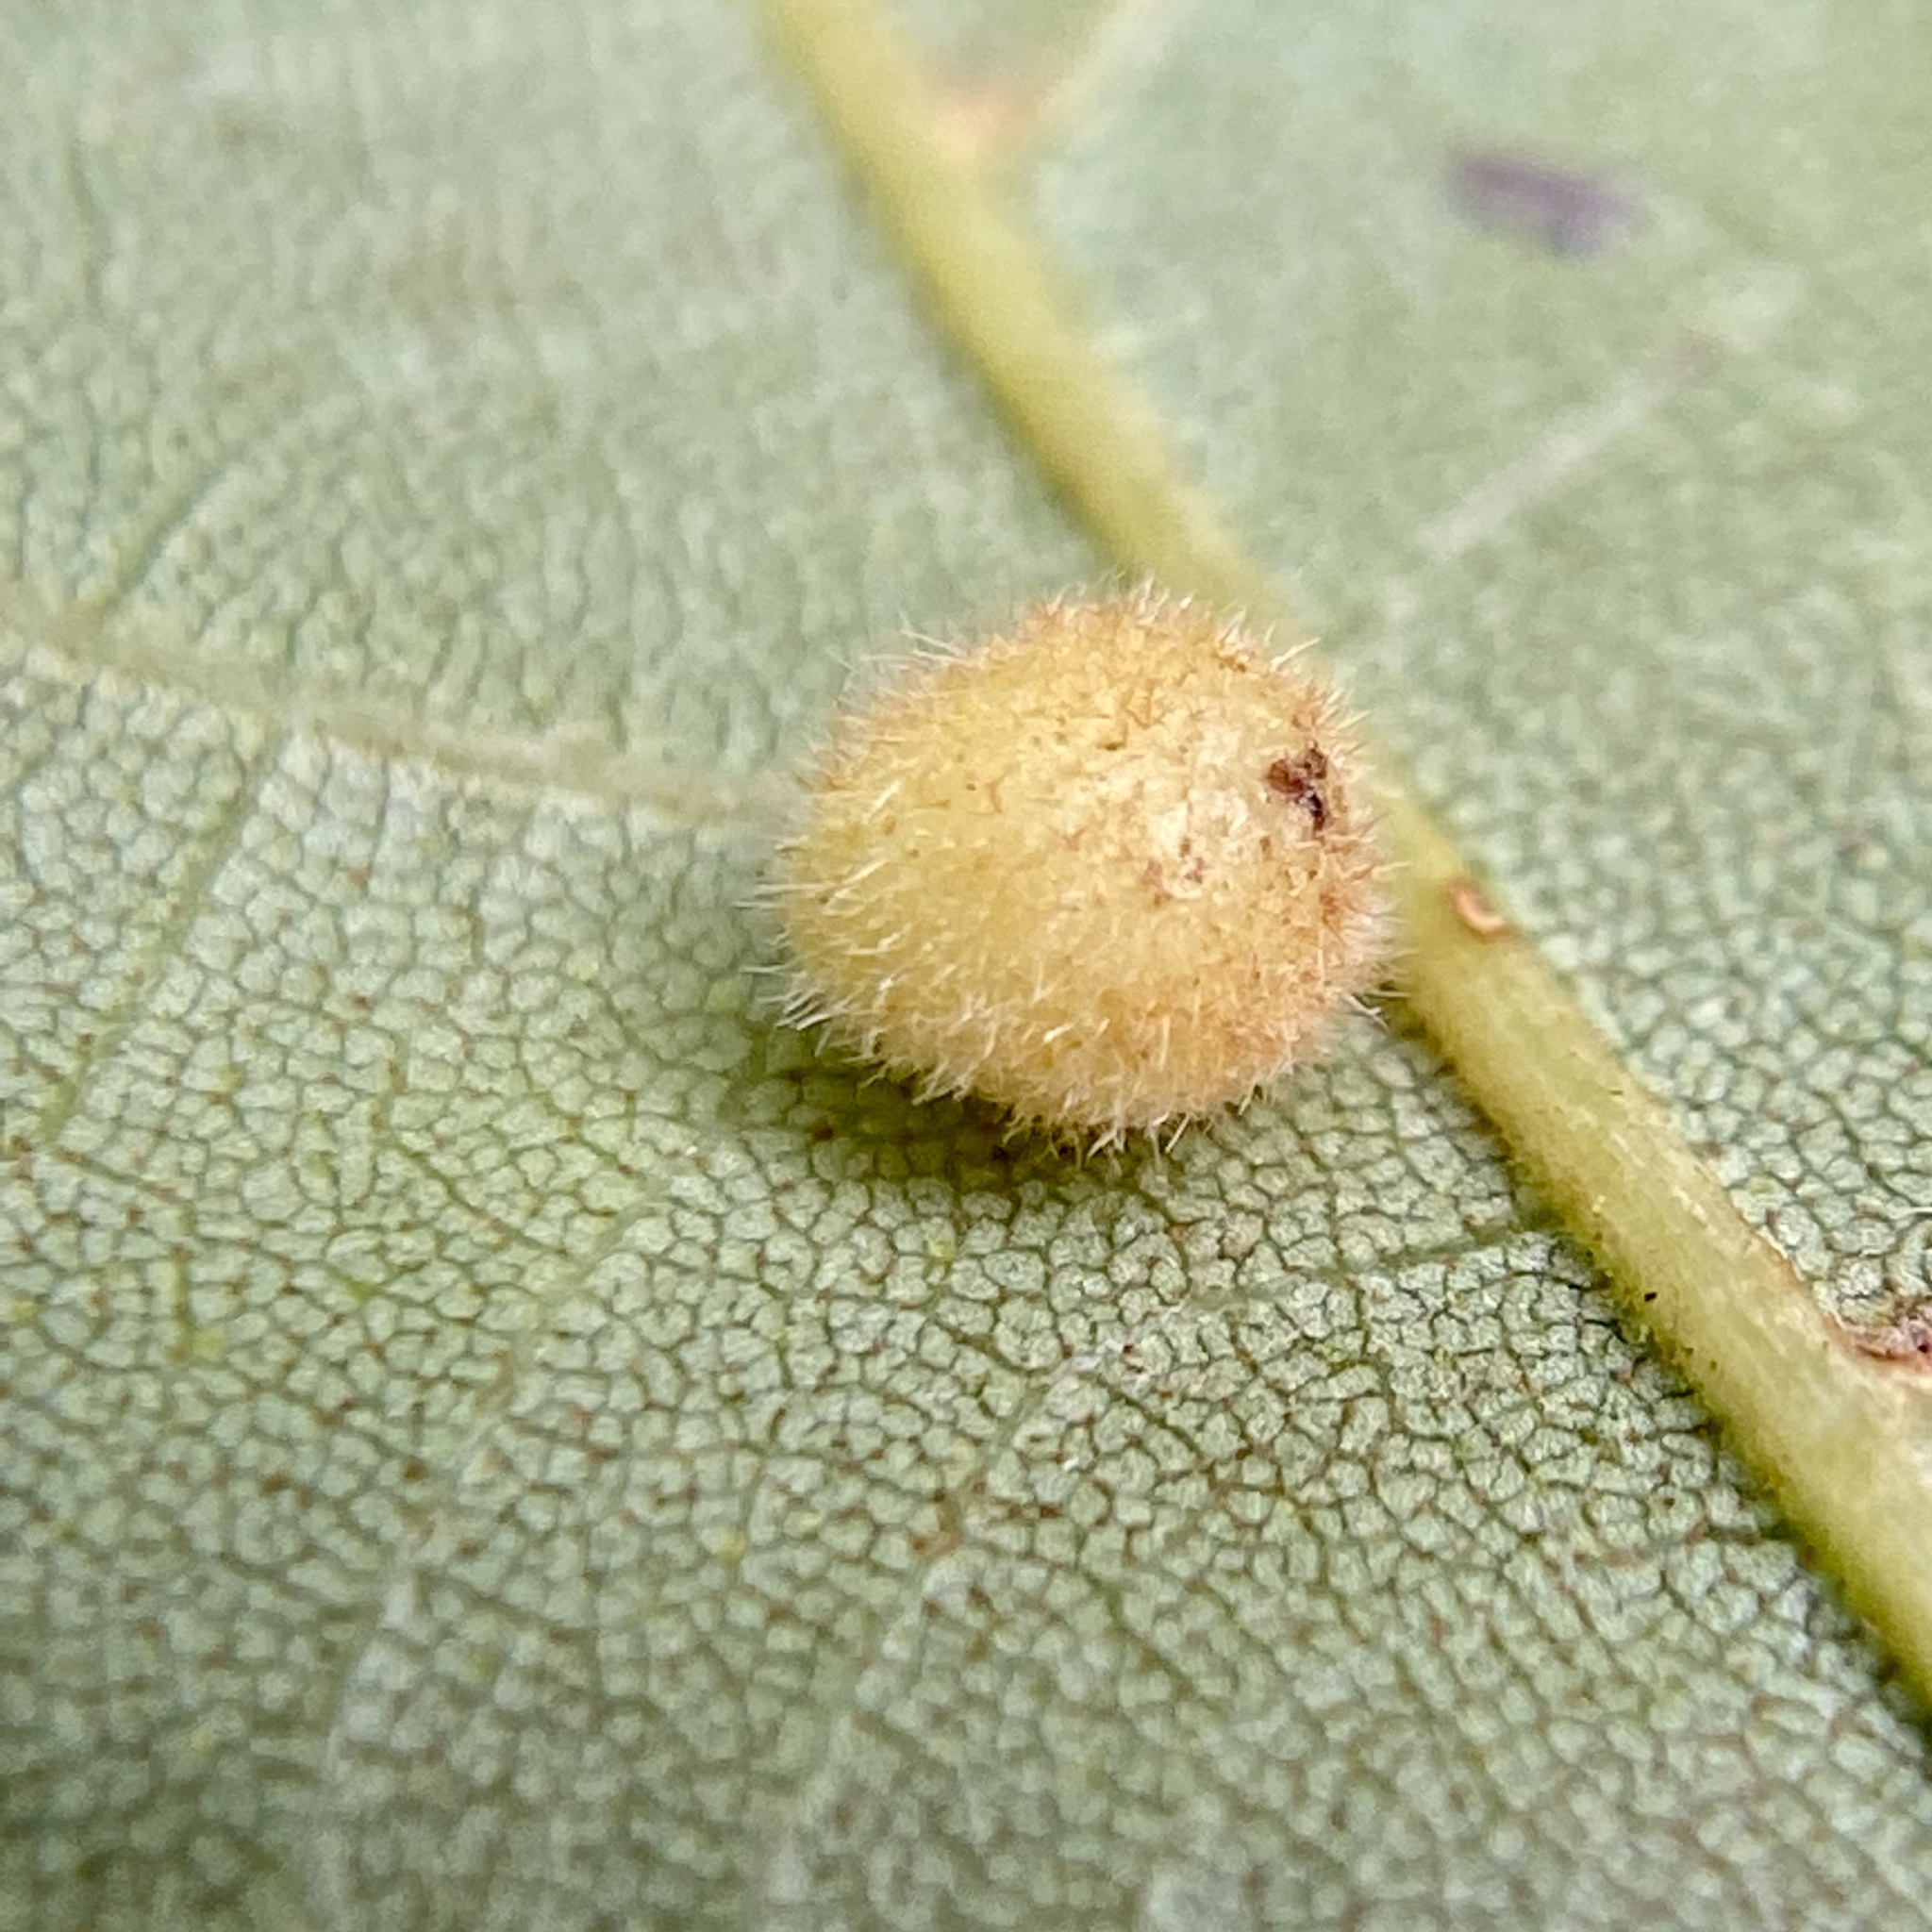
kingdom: Animalia
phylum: Arthropoda
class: Insecta
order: Hymenoptera
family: Cynipidae
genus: Philonix
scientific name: Philonix fulvicollis
